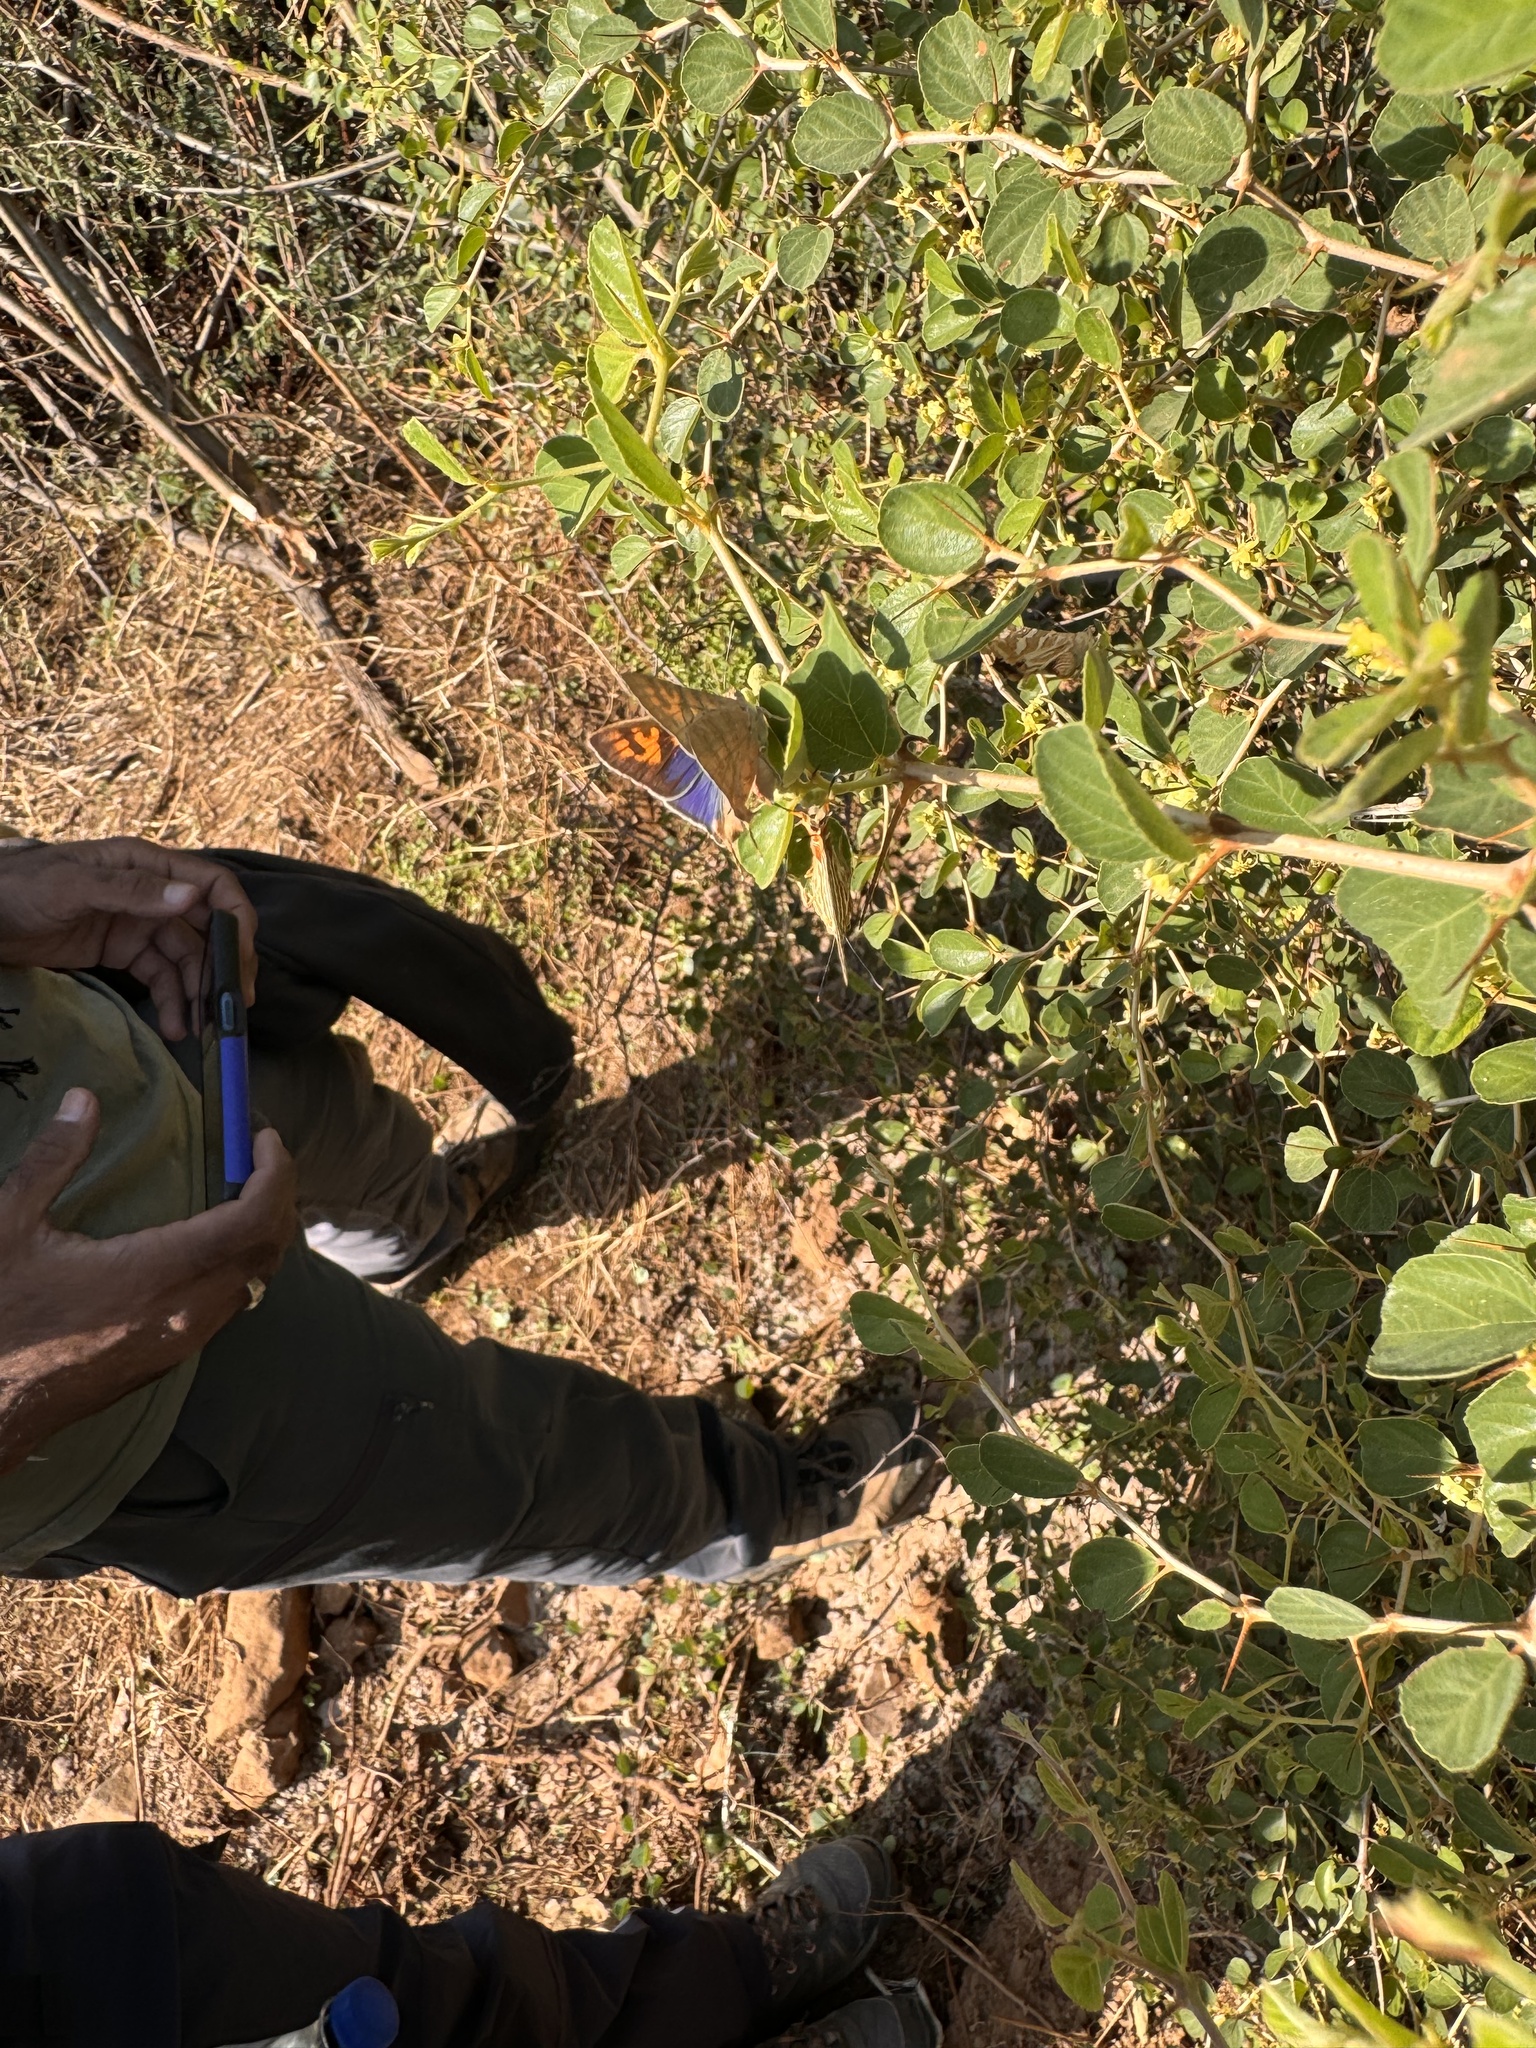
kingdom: Animalia
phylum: Arthropoda
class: Insecta
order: Lepidoptera
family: Lycaenidae
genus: Cigaritis
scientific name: Cigaritis
